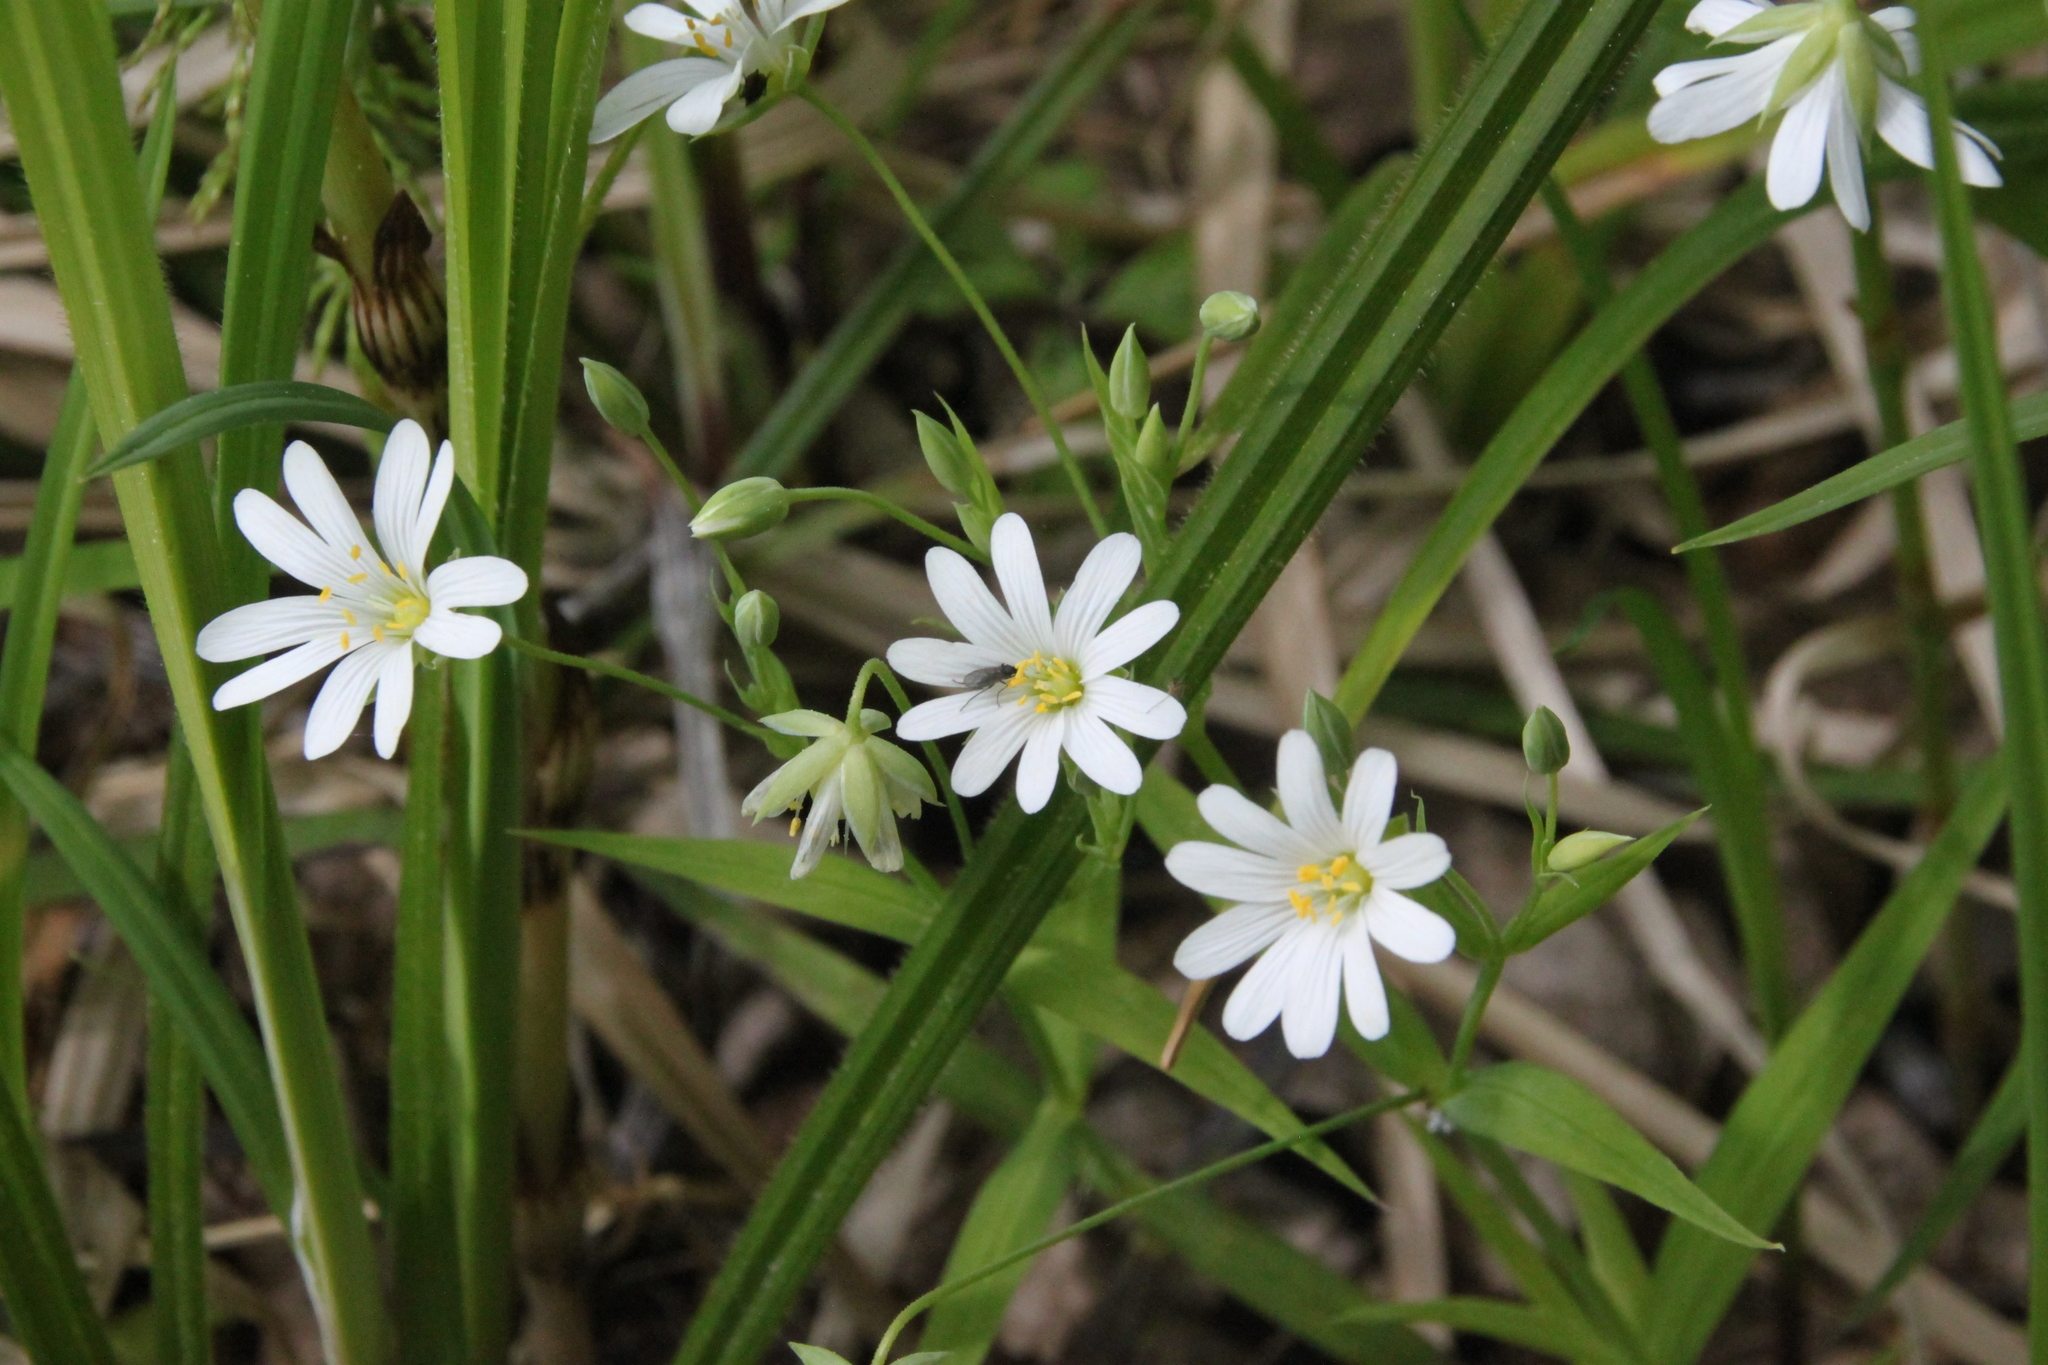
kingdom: Plantae
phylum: Tracheophyta
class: Magnoliopsida
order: Caryophyllales
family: Caryophyllaceae
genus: Rabelera
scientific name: Rabelera holostea
